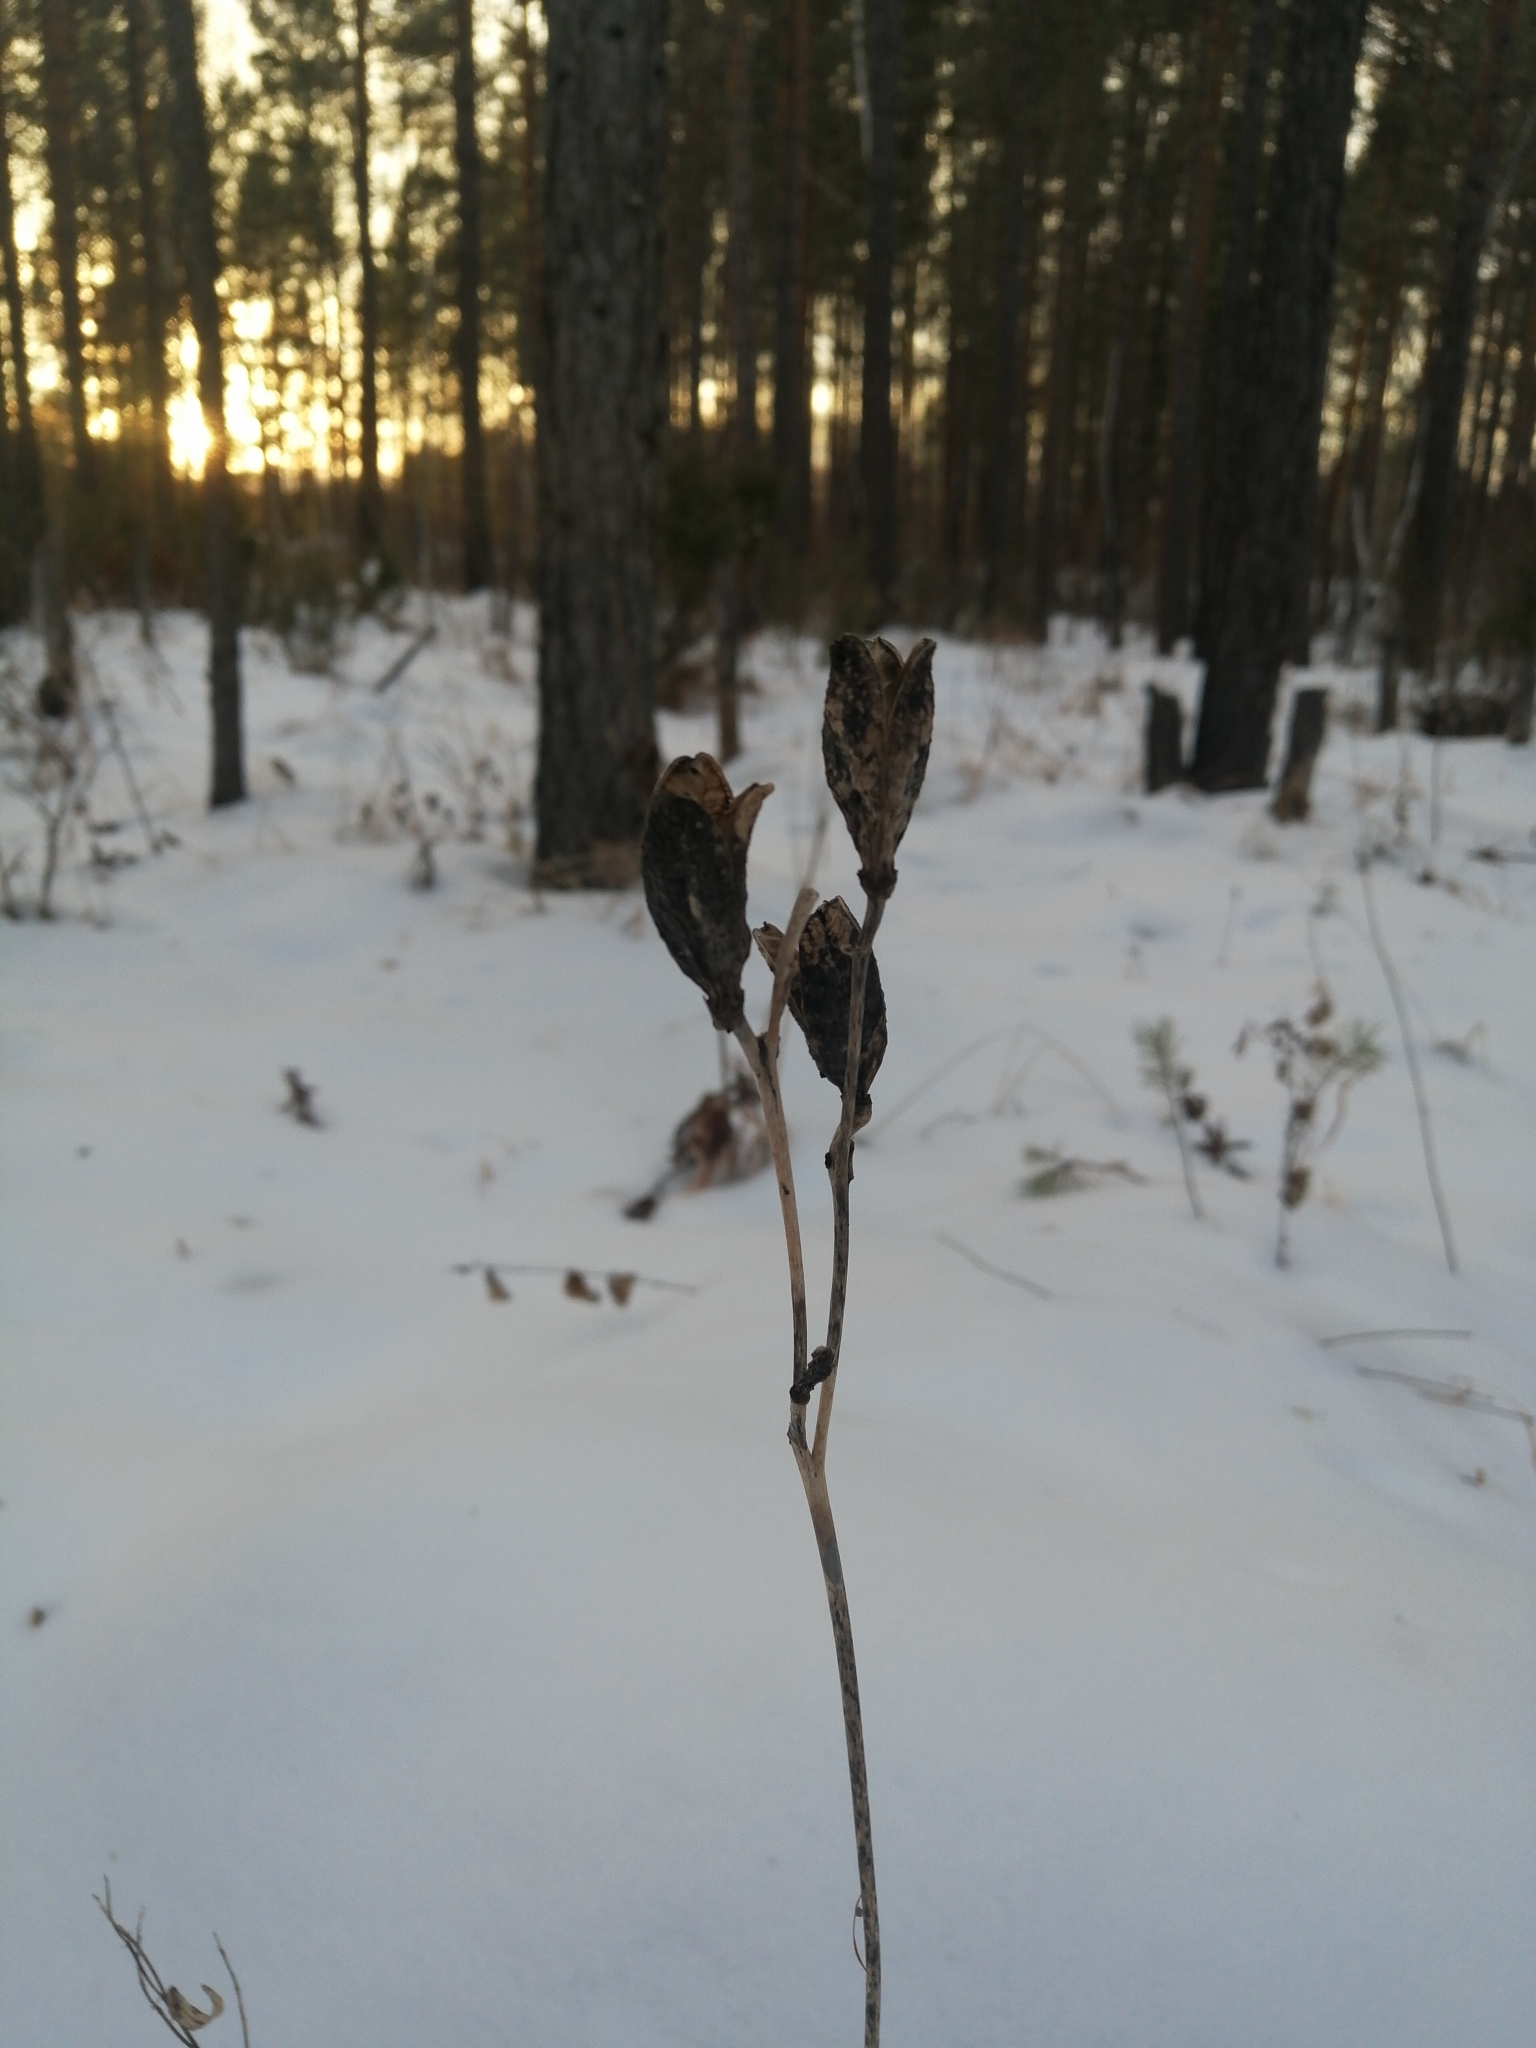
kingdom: Plantae
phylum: Tracheophyta
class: Liliopsida
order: Asparagales
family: Asphodelaceae
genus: Hemerocallis
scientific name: Hemerocallis minor
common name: Small daylily
